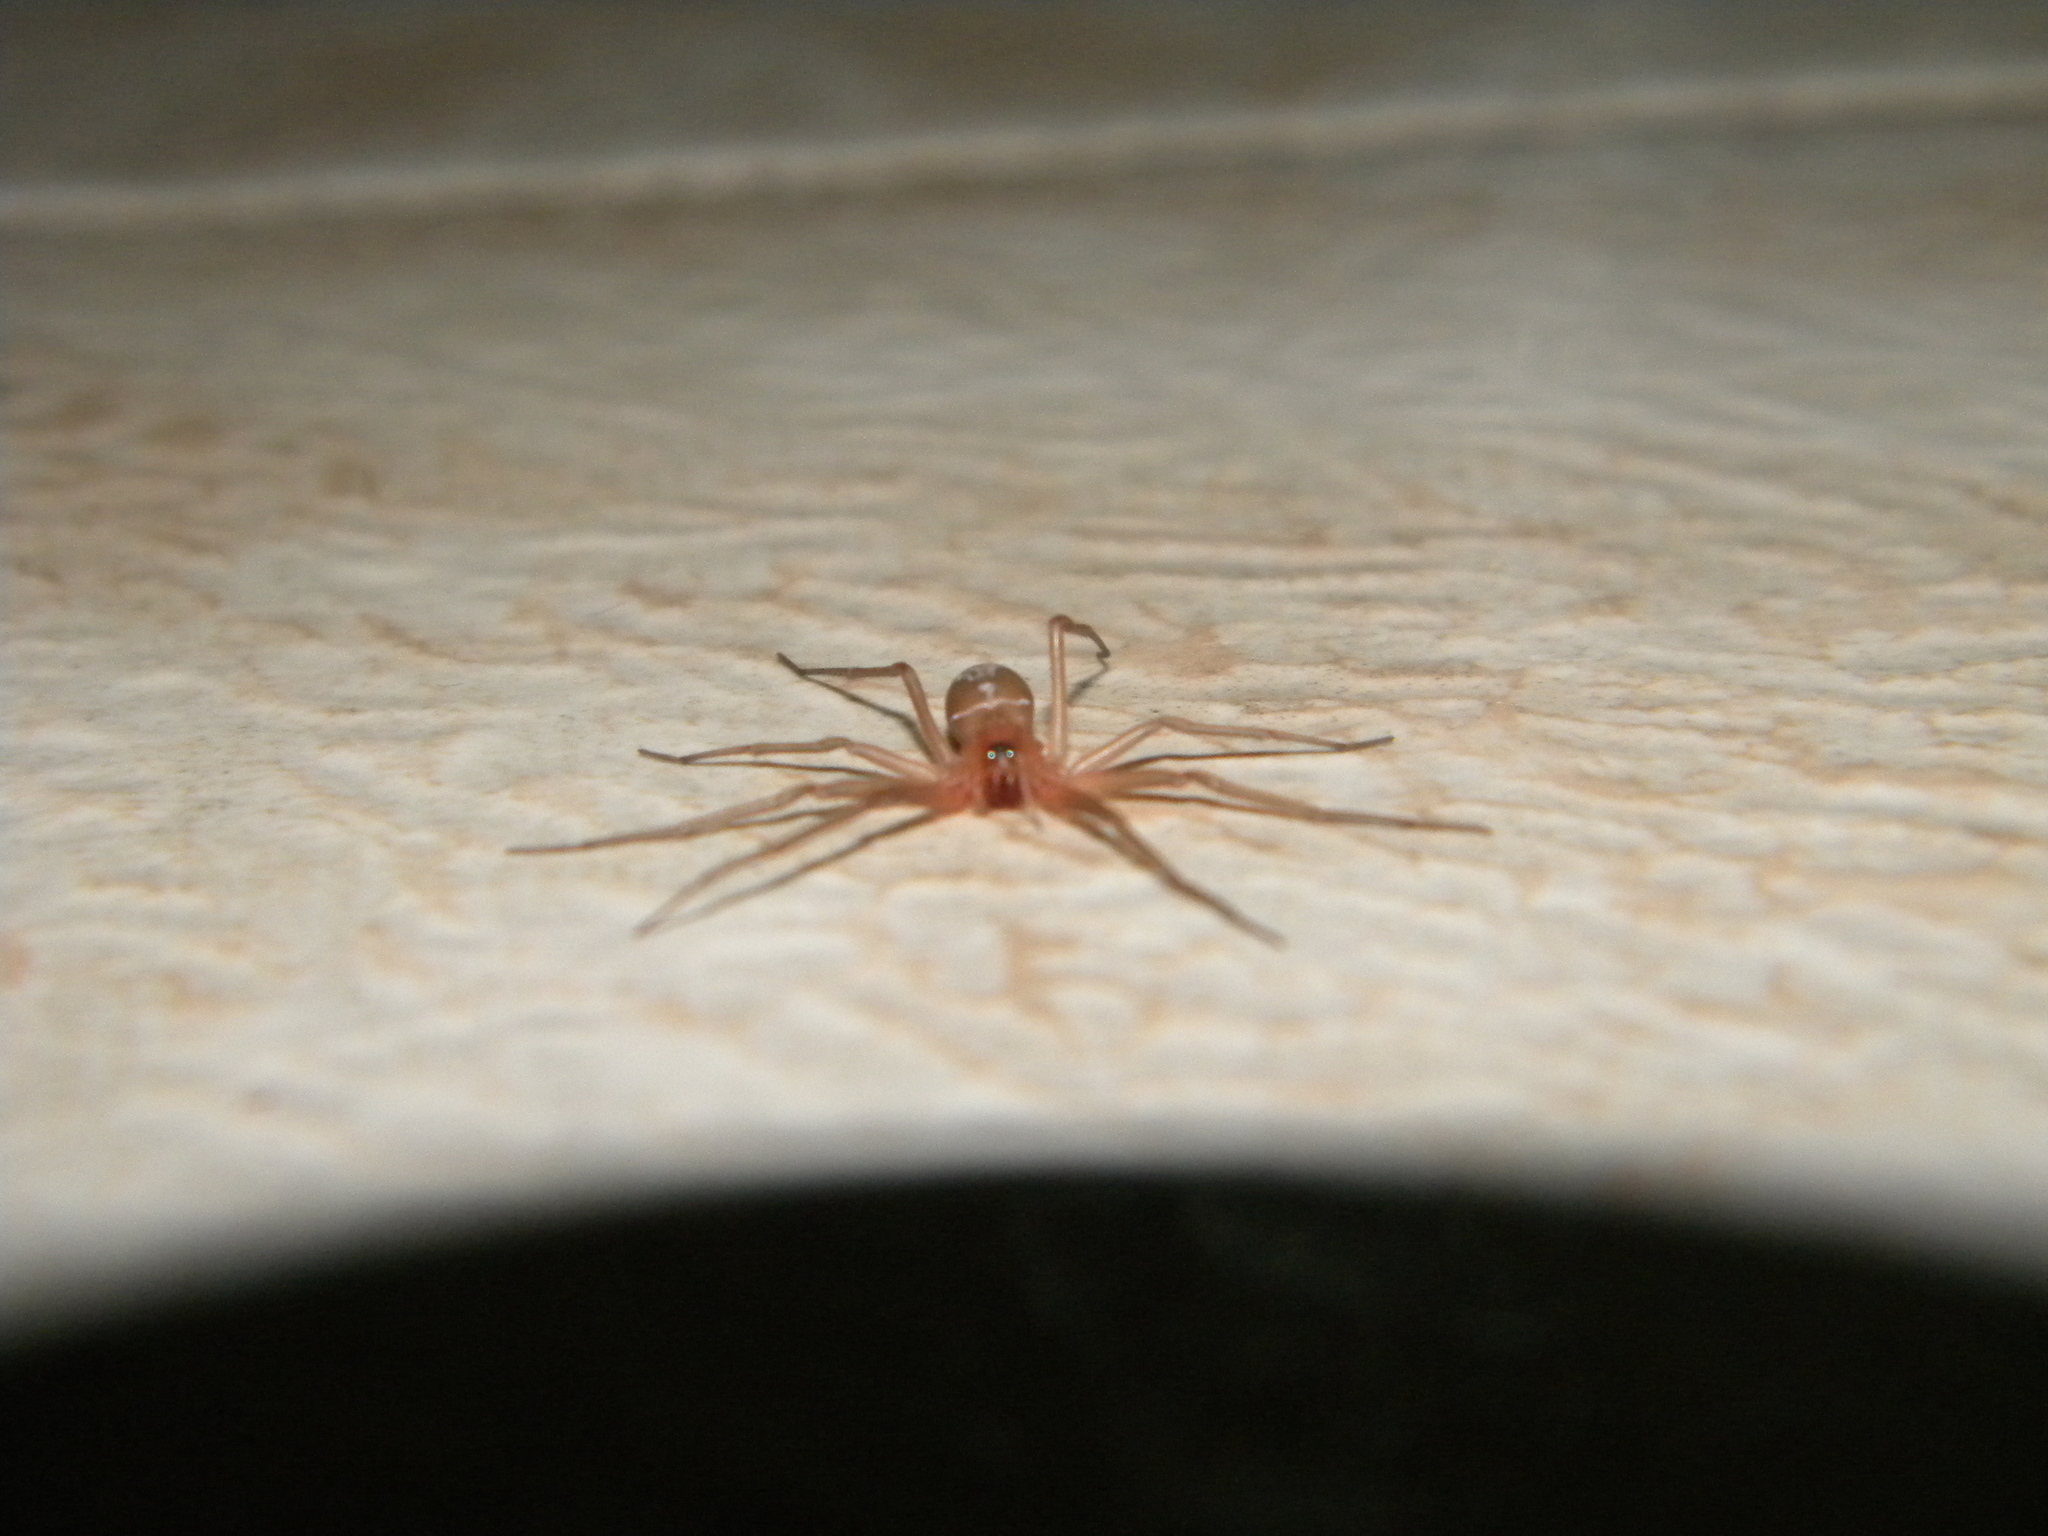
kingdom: Animalia
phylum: Arthropoda
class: Arachnida
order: Araneae
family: Sicariidae
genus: Loxosceles
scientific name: Loxosceles rufescens
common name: Mediterranean recluse spider
